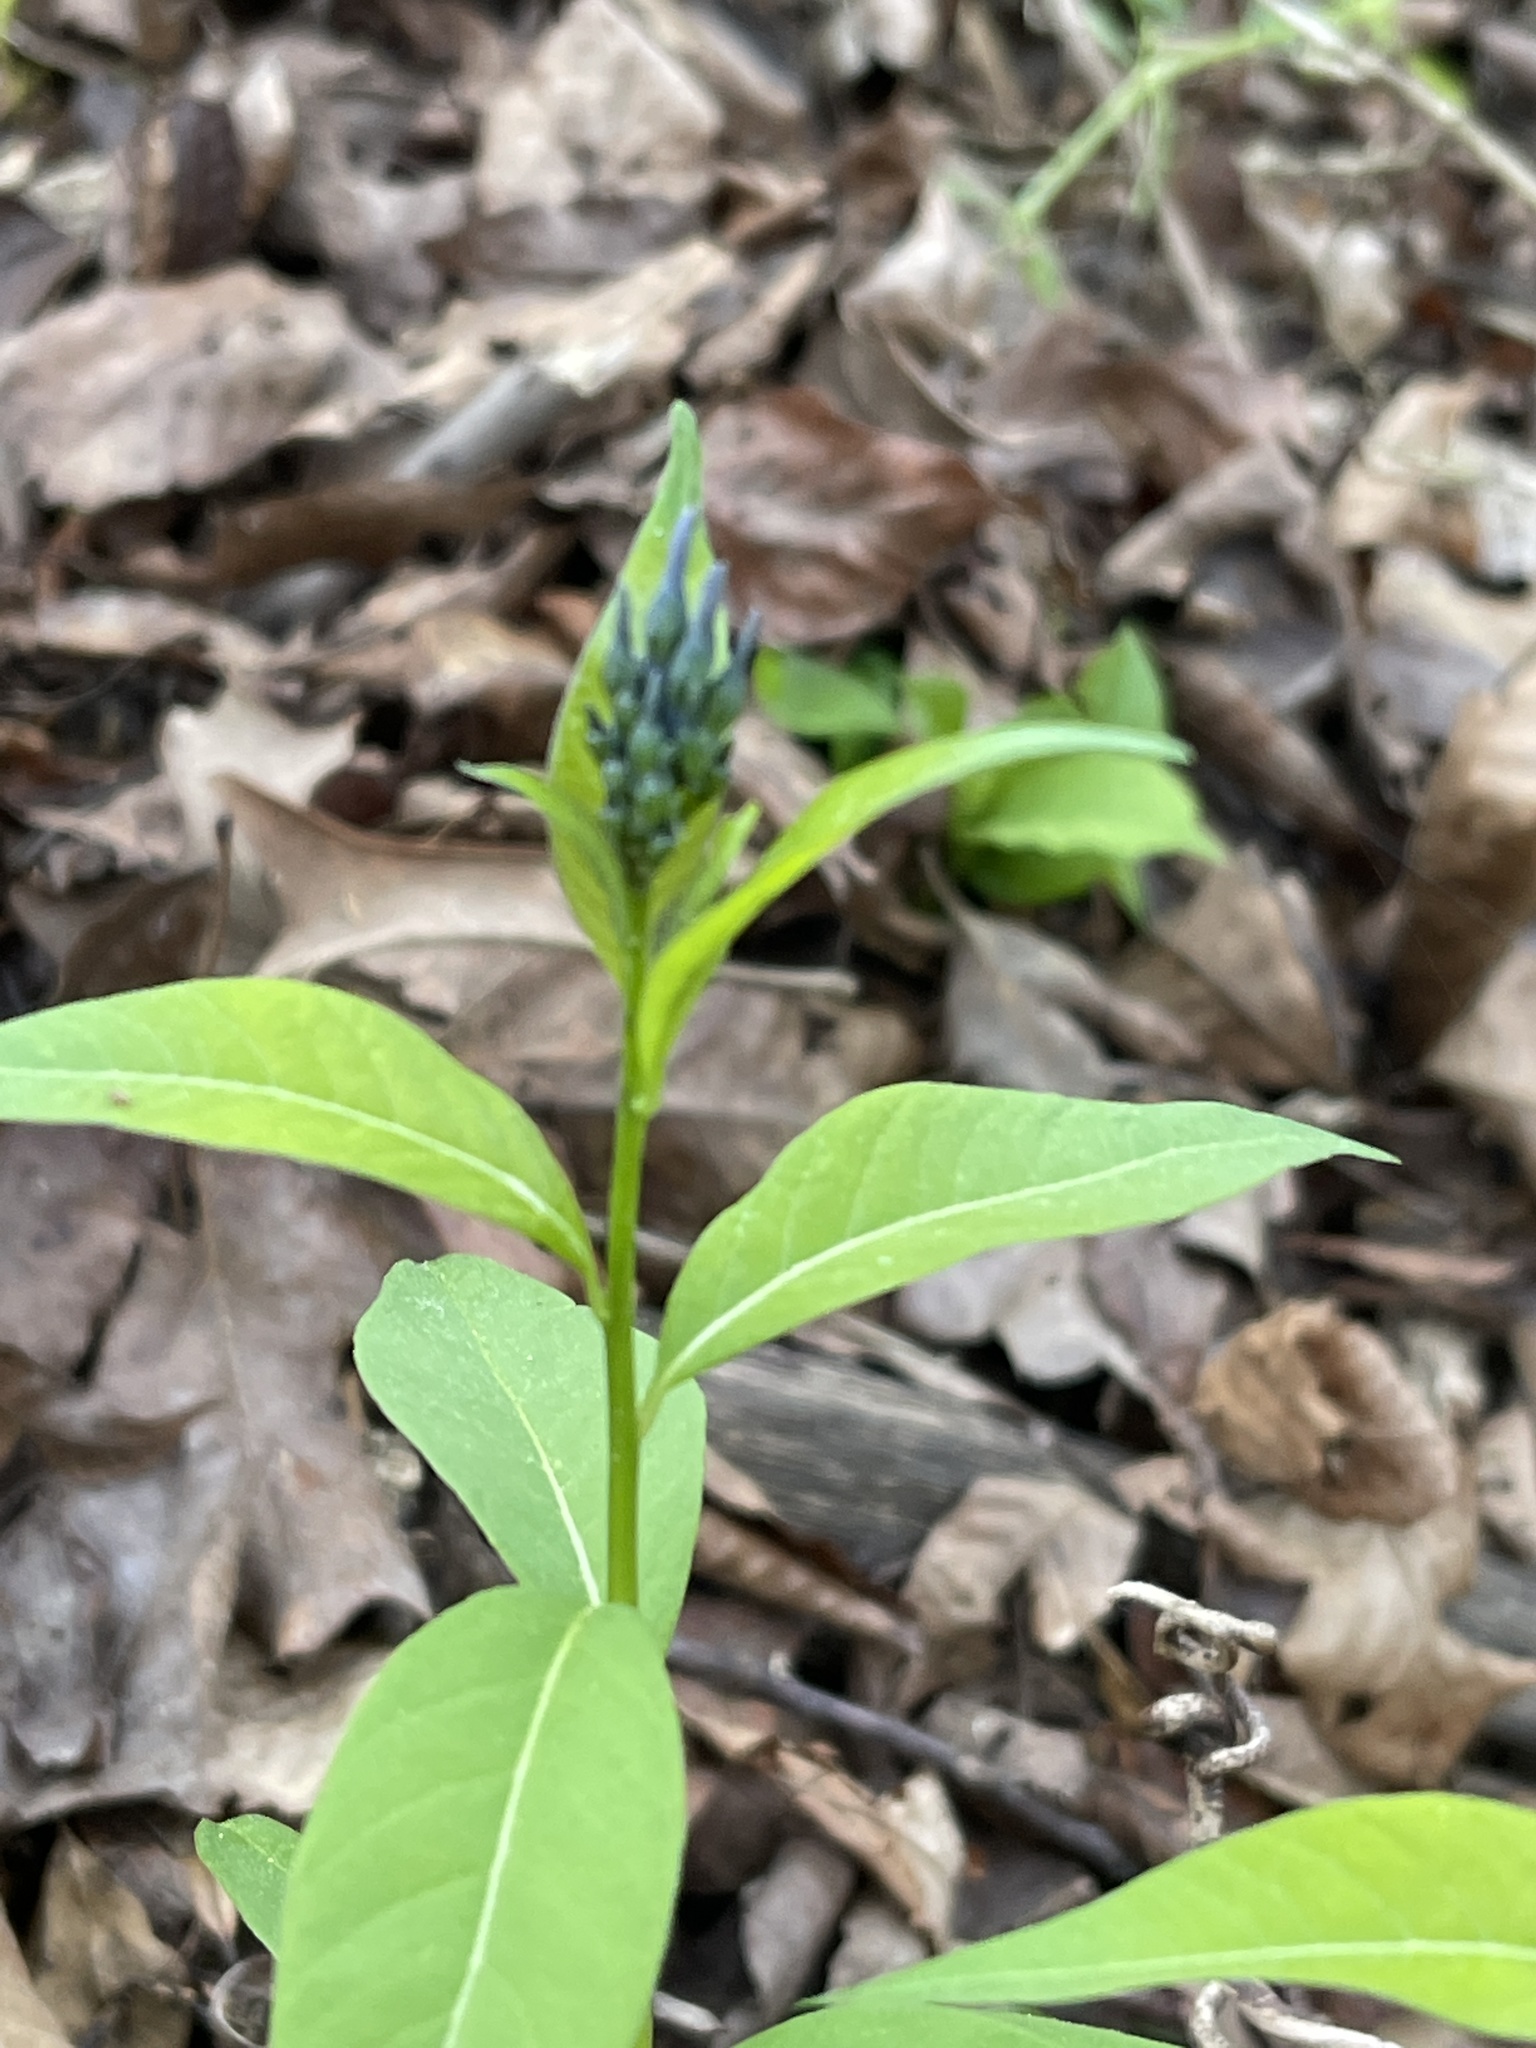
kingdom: Plantae
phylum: Tracheophyta
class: Magnoliopsida
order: Gentianales
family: Apocynaceae
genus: Amsonia
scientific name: Amsonia tabernaemontana
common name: Texas-star
